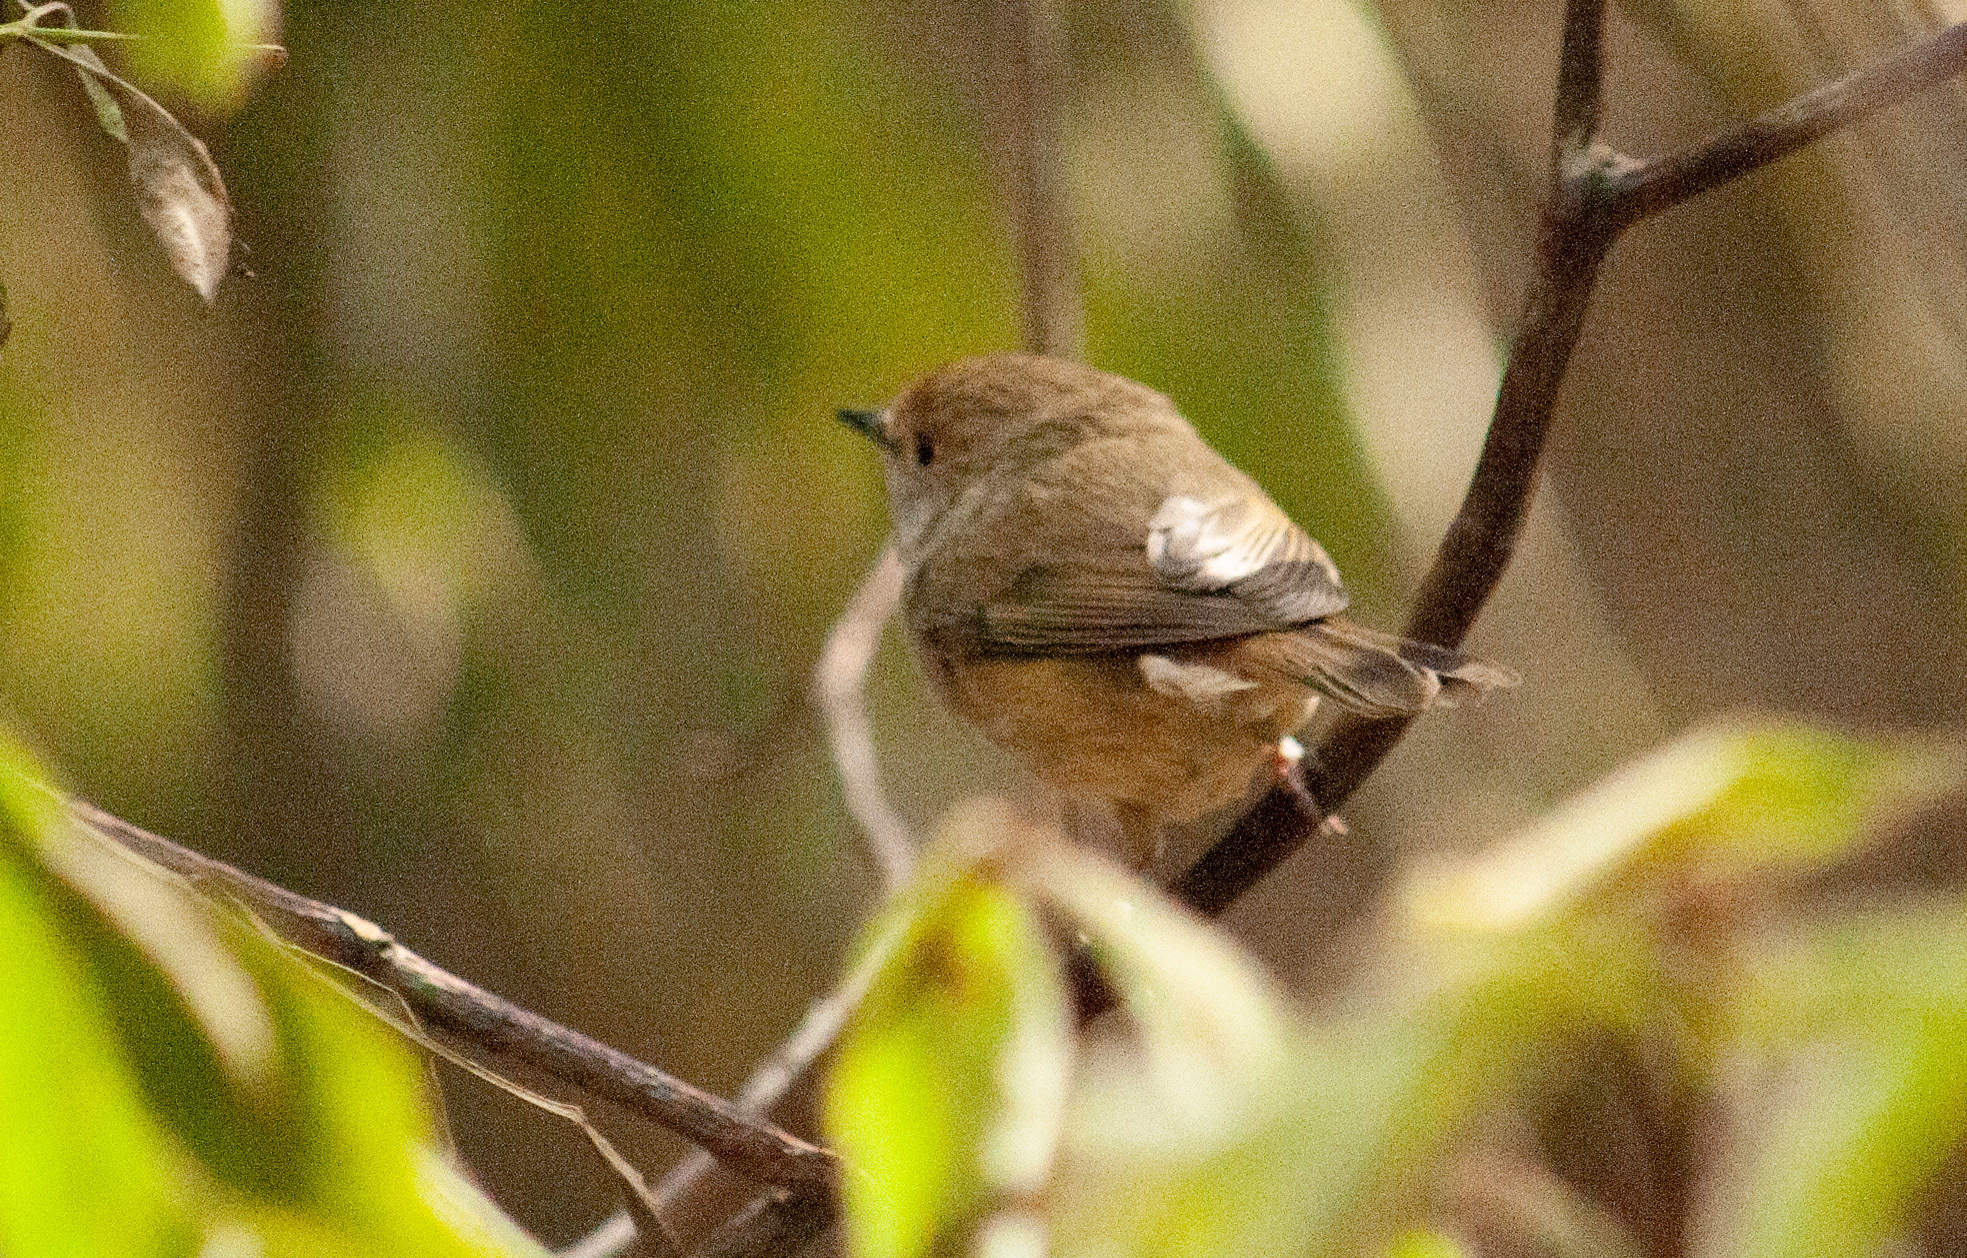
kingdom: Animalia
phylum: Chordata
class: Aves
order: Passeriformes
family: Acanthizidae
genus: Acanthiza
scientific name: Acanthiza pusilla
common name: Brown thornbill
